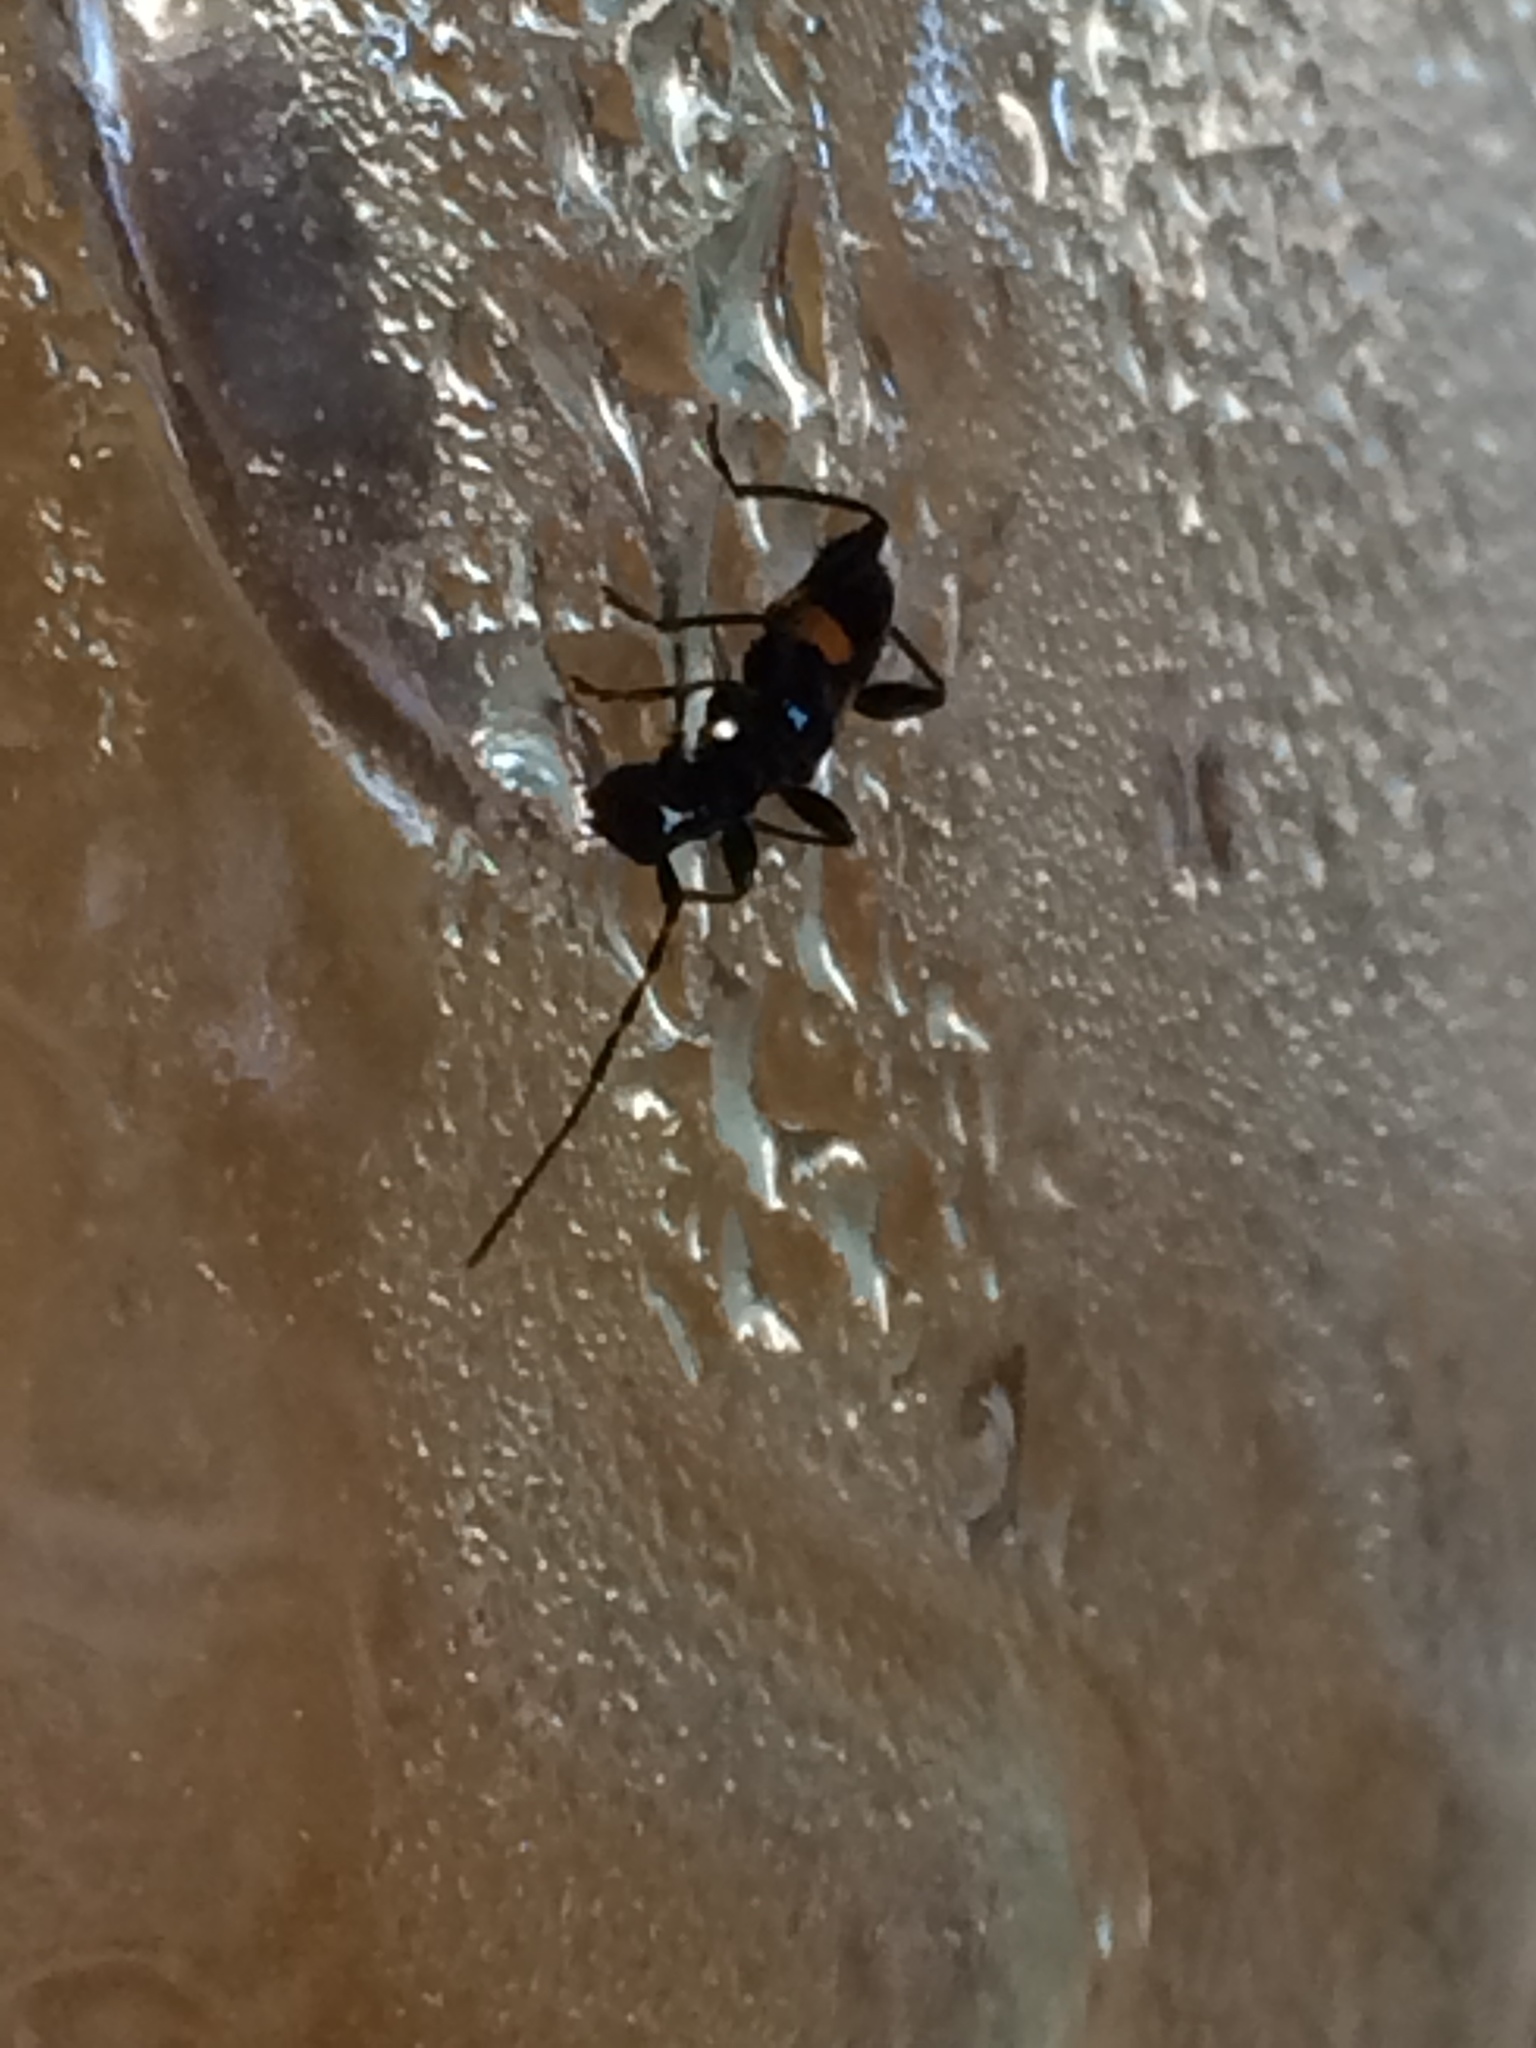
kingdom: Animalia
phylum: Arthropoda
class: Insecta
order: Coleoptera
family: Cerambycidae
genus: Zorion
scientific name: Zorion guttigerum
